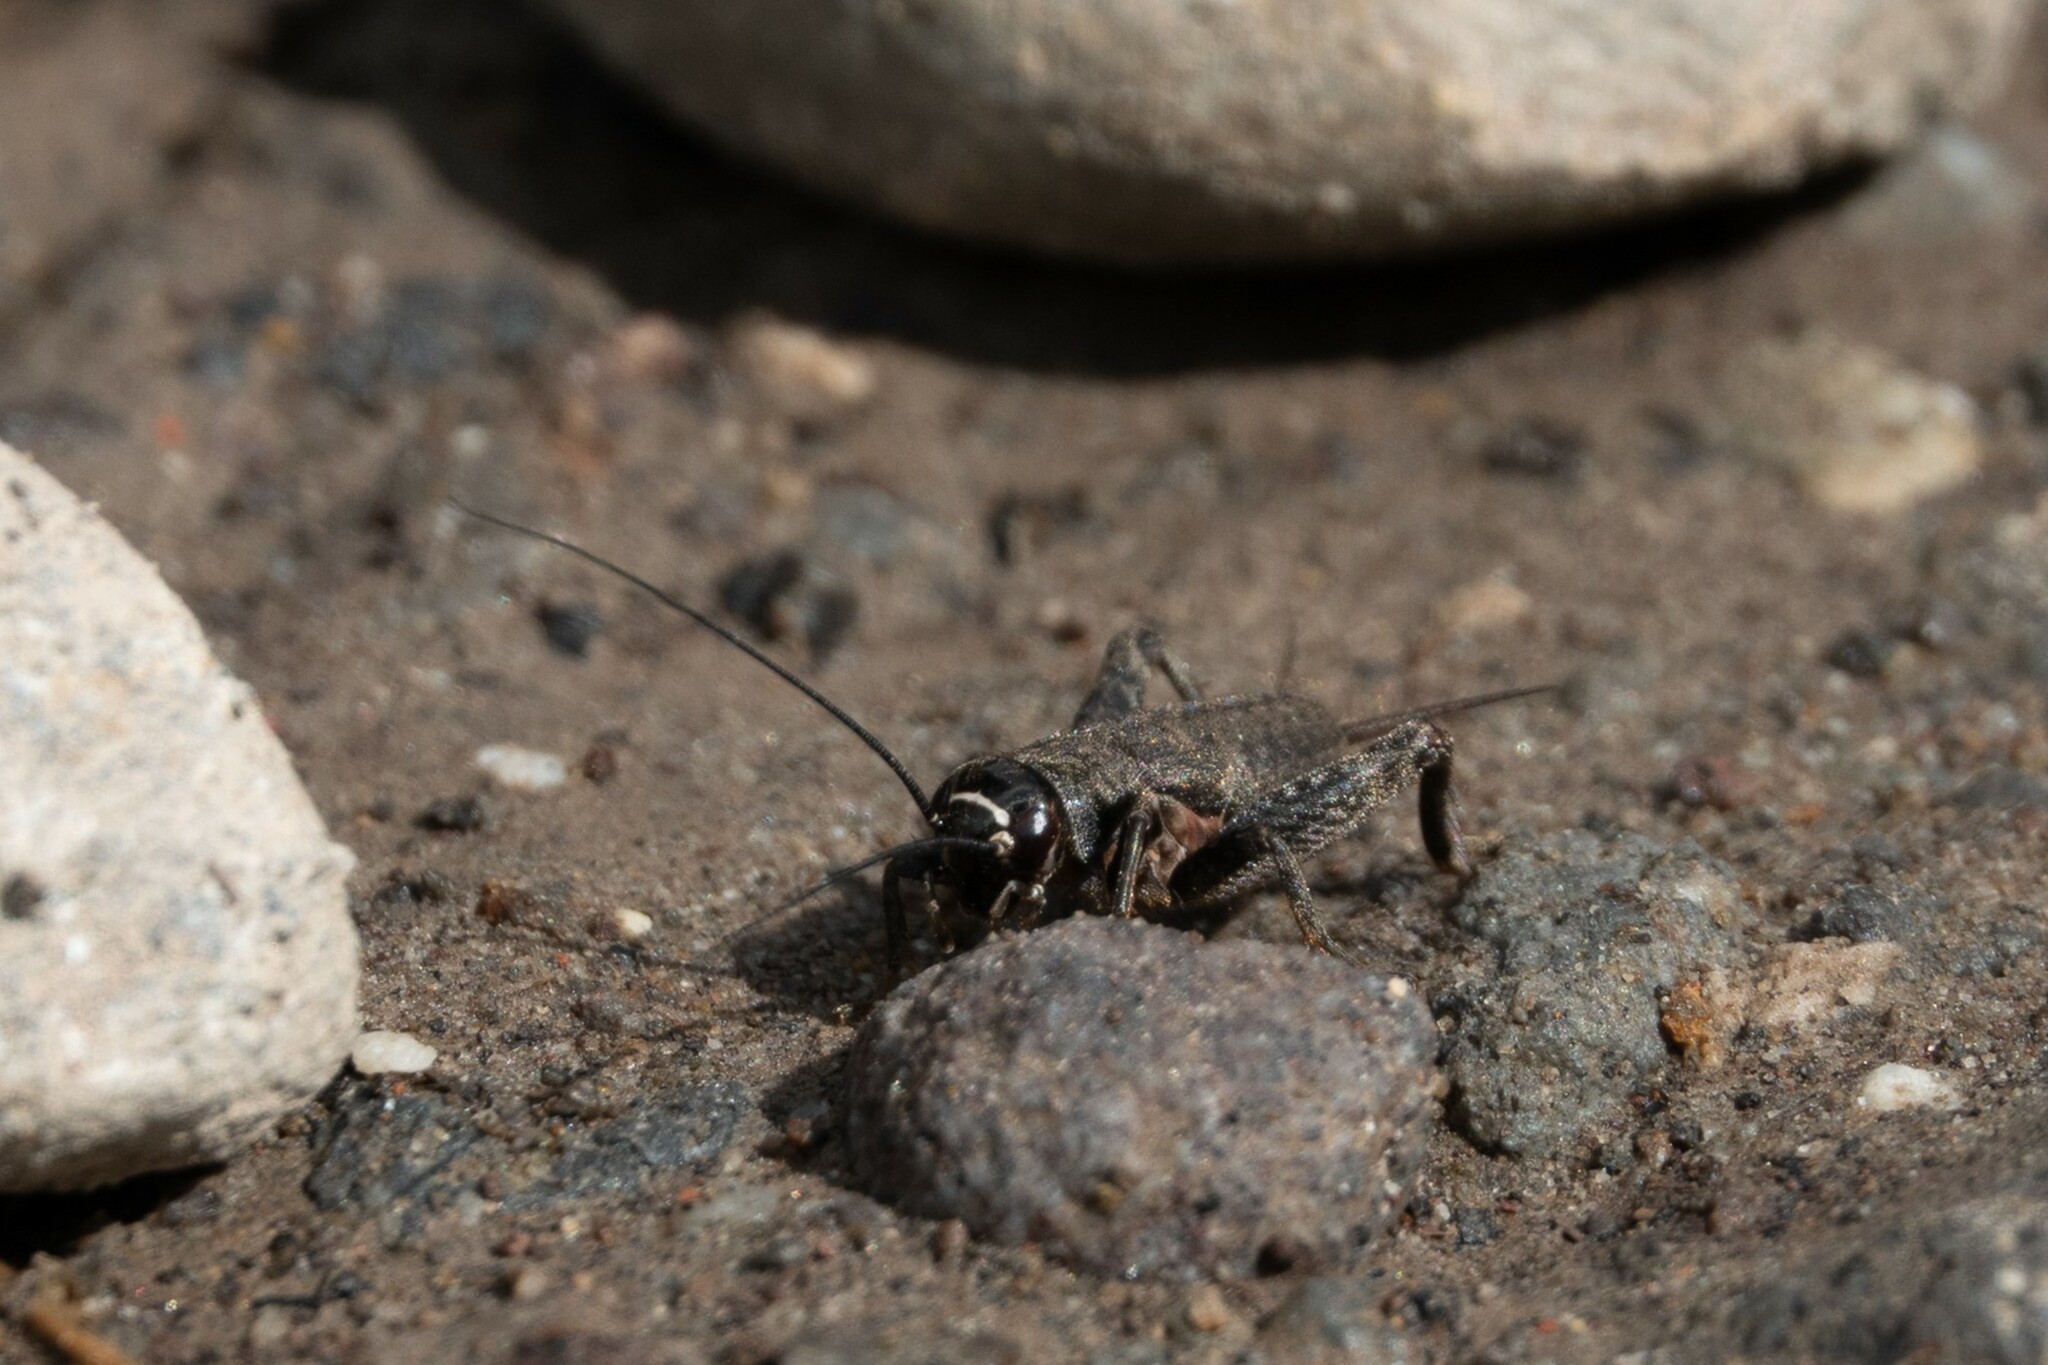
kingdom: Animalia
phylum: Arthropoda
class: Insecta
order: Orthoptera
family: Gryllidae
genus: Modicogryllus
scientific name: Modicogryllus frontalis
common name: Eastern cricket
